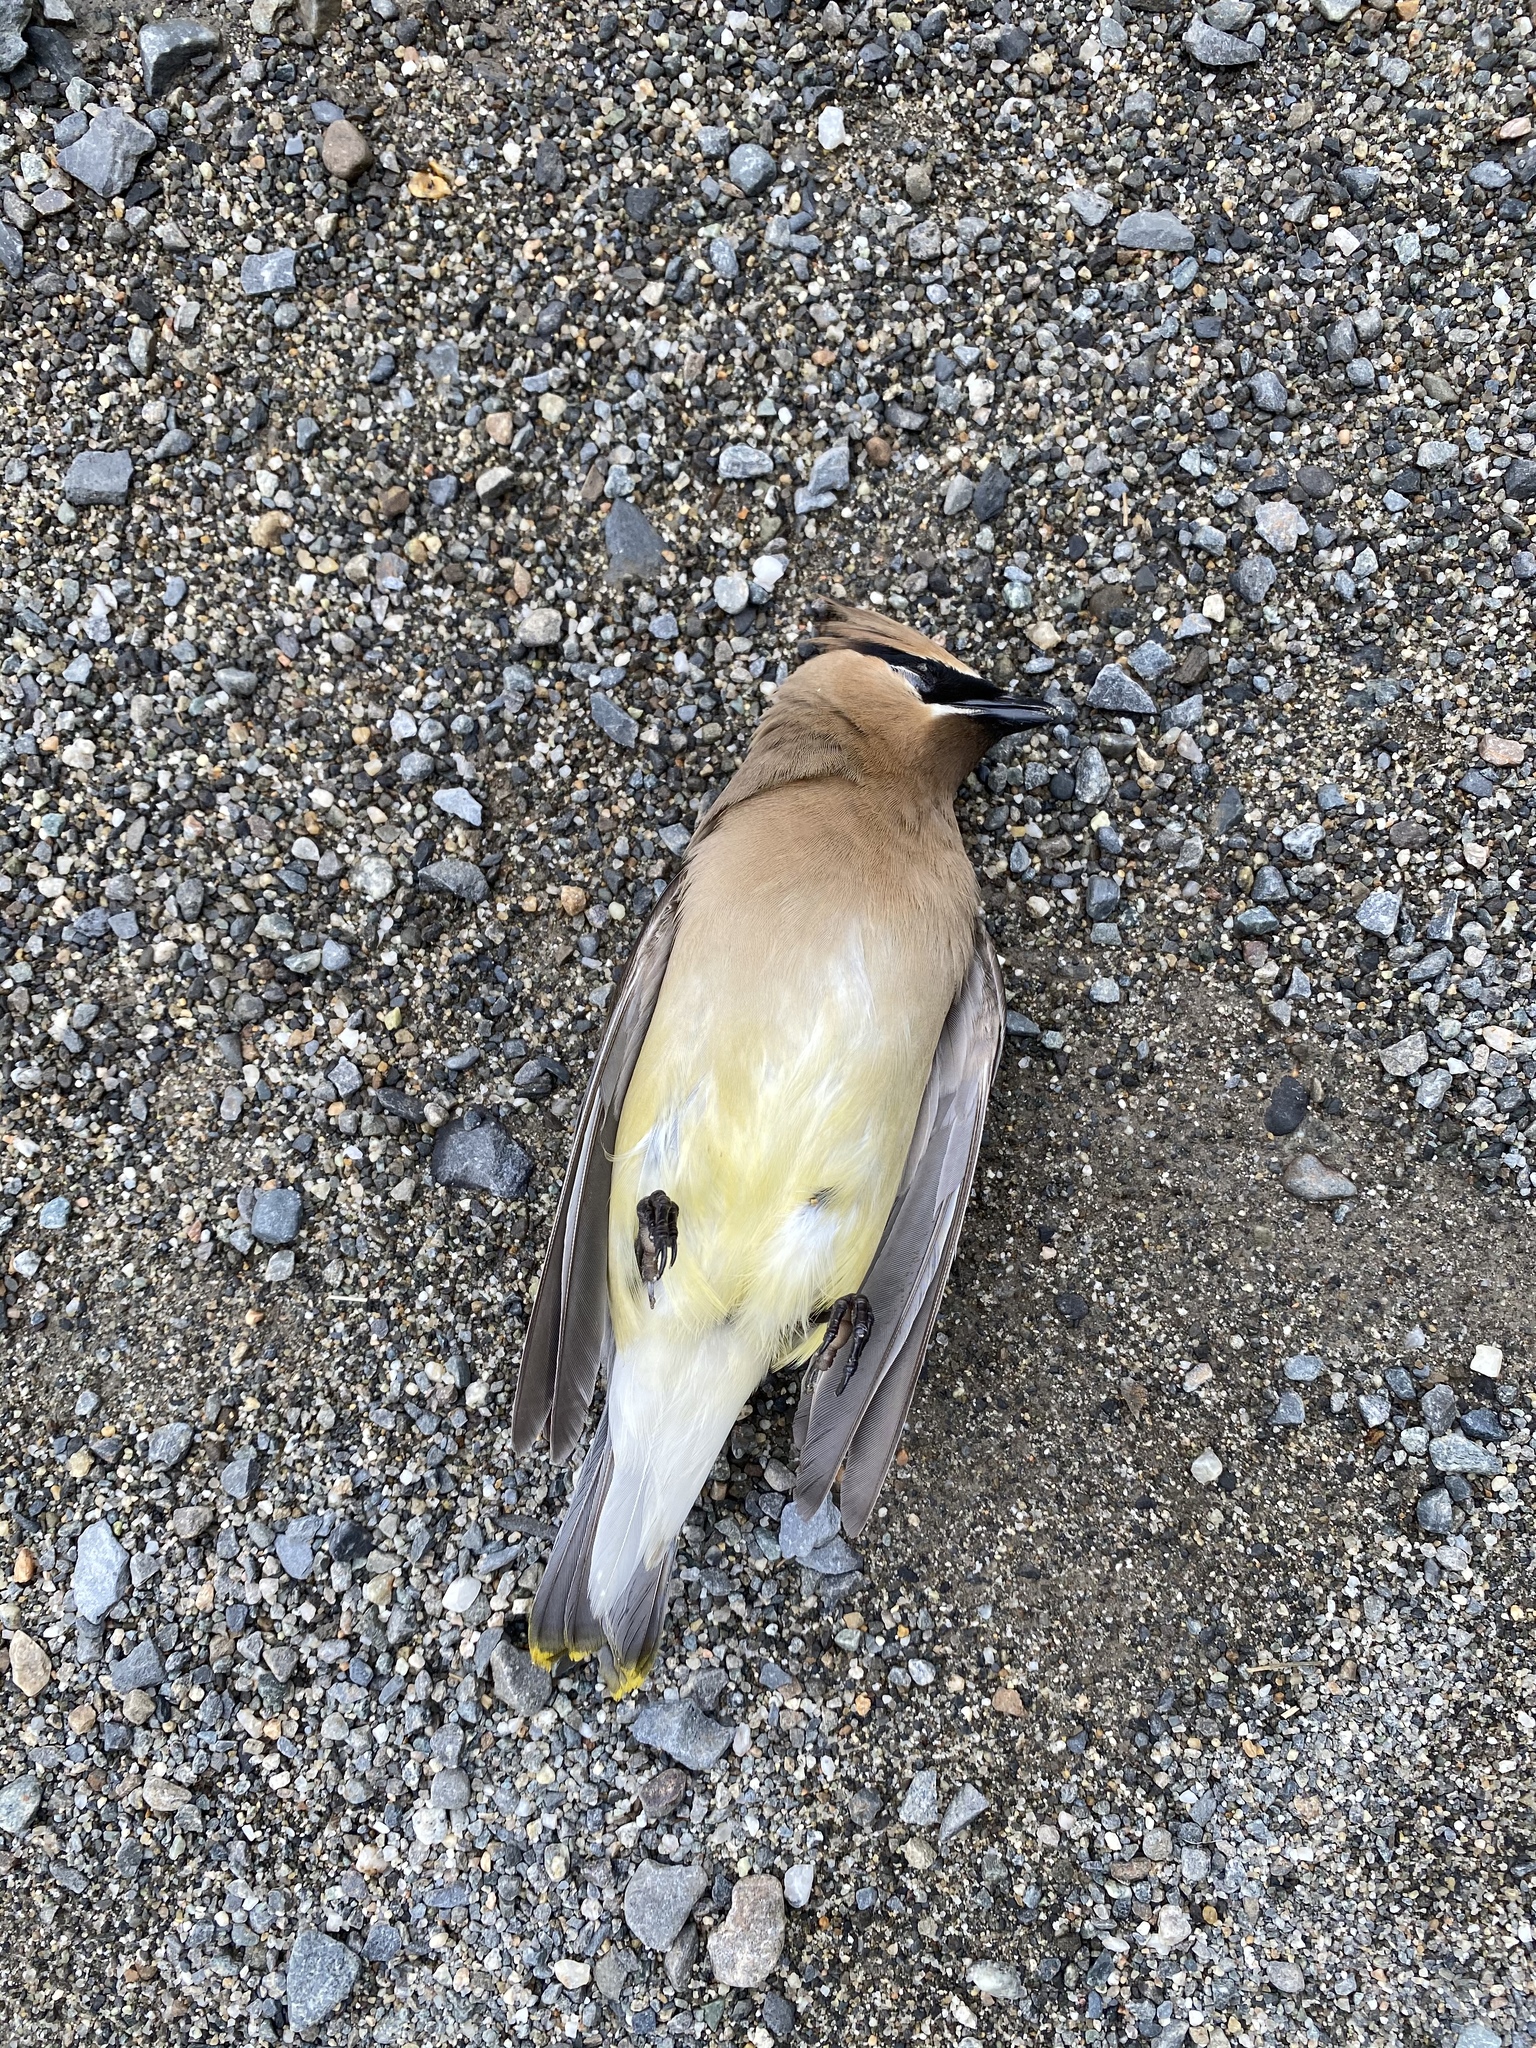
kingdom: Animalia
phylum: Chordata
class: Aves
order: Passeriformes
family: Bombycillidae
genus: Bombycilla
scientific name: Bombycilla cedrorum
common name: Cedar waxwing
